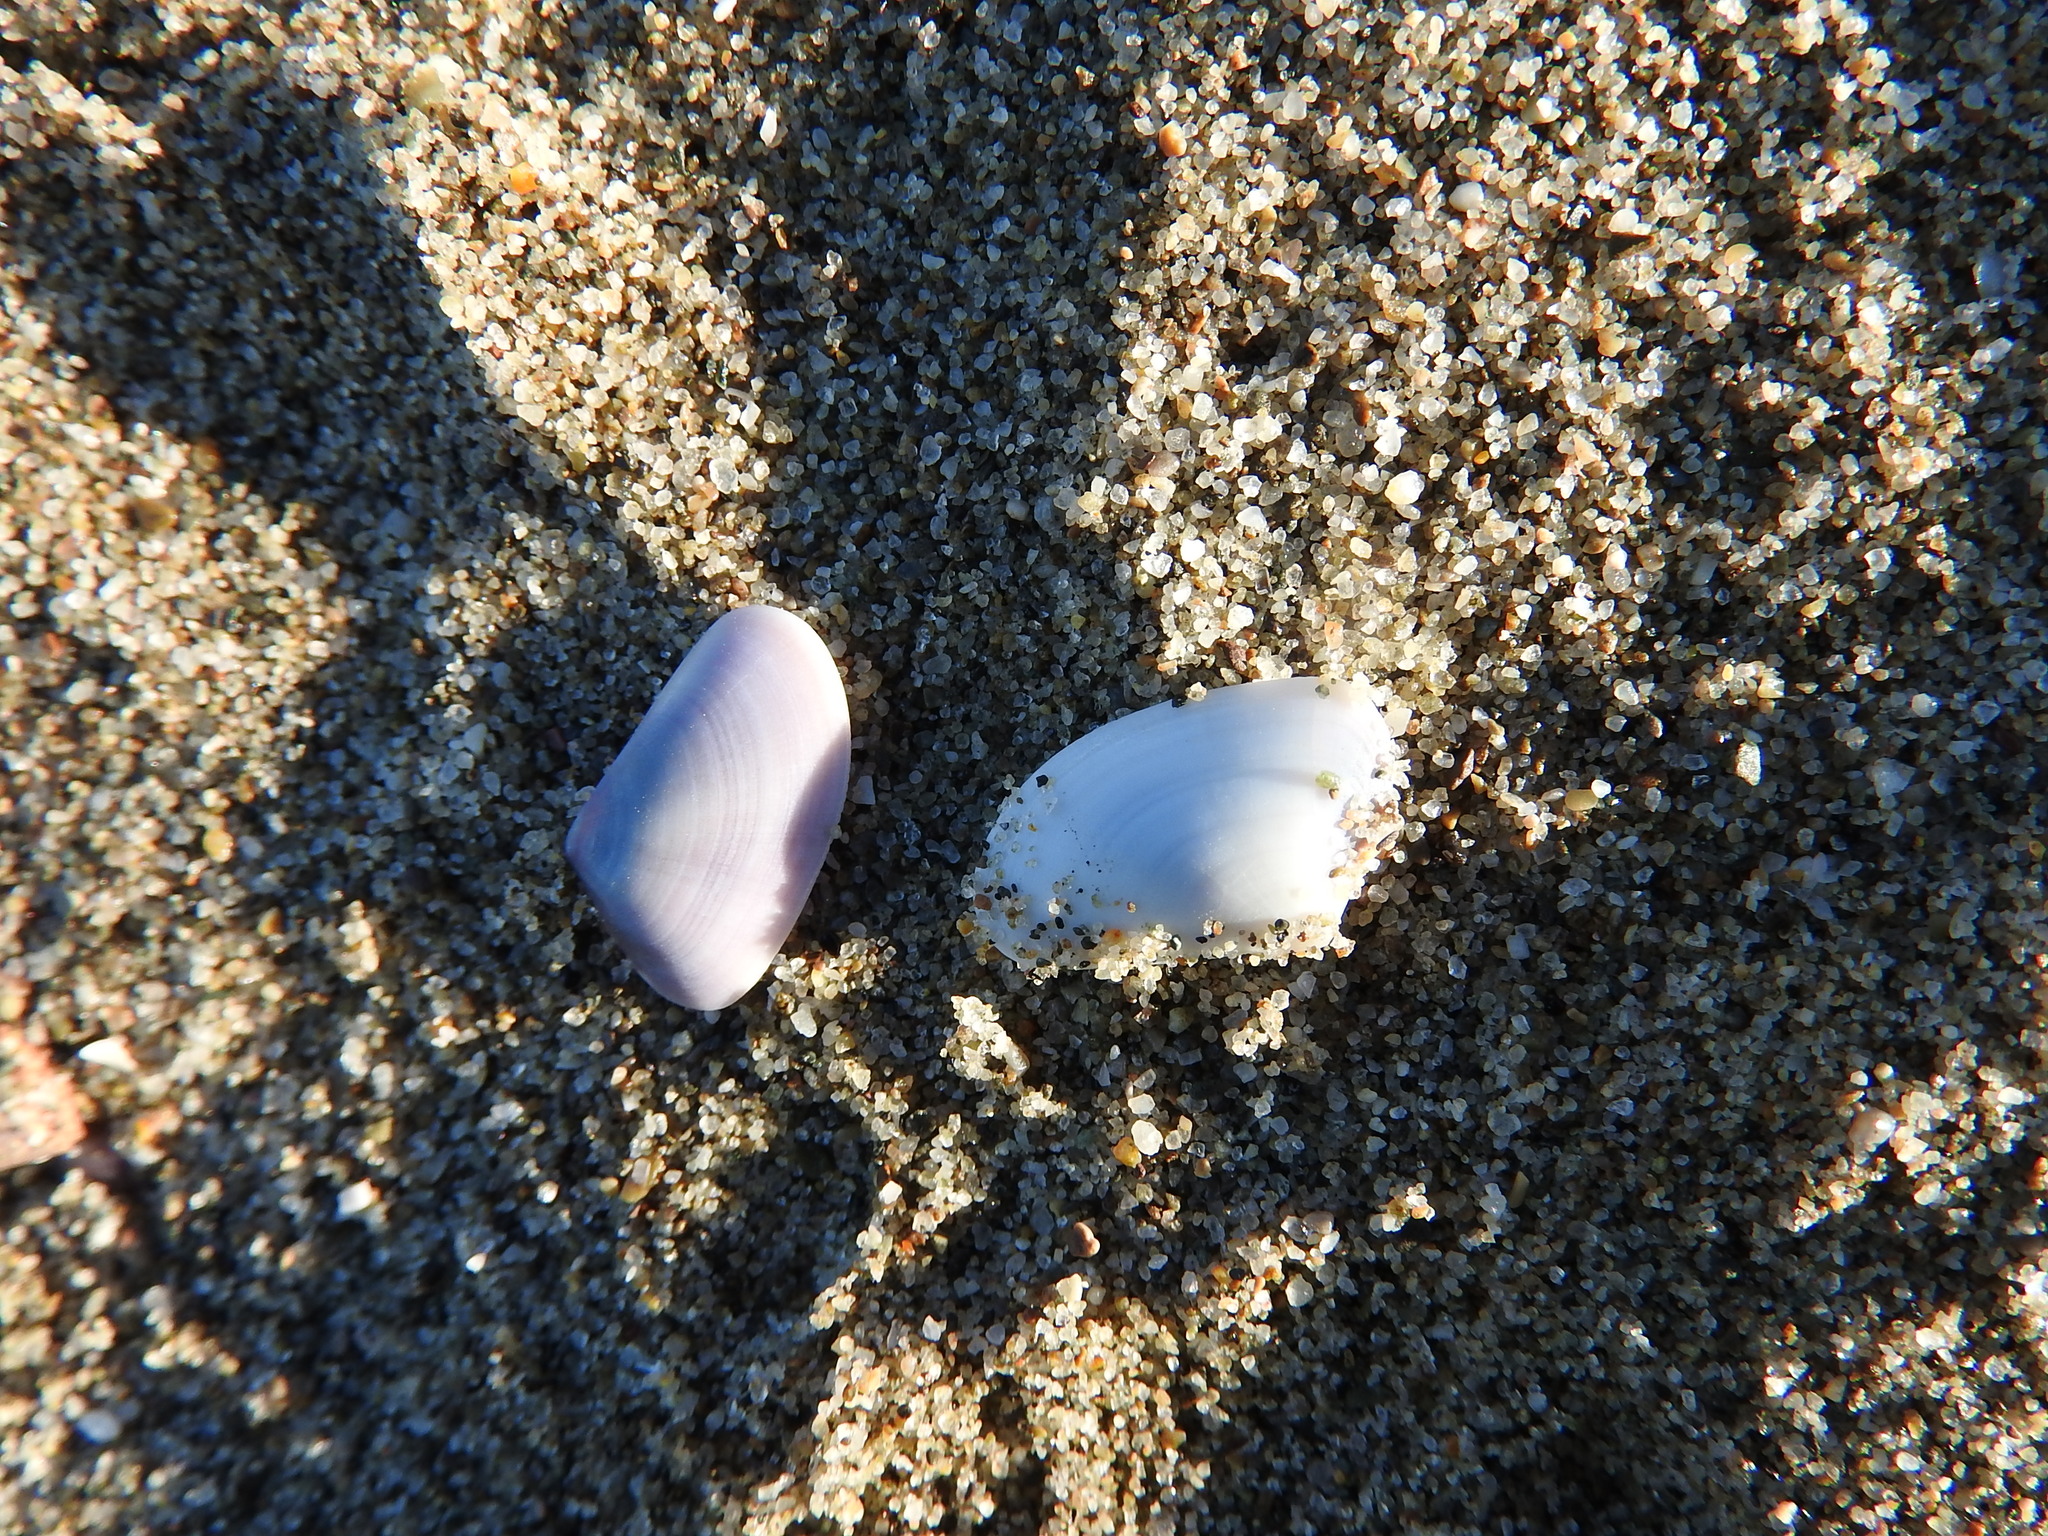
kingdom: Animalia
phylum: Mollusca
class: Bivalvia
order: Cardiida
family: Donacidae
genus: Donax
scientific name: Donax trunculus
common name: Truncate donax
